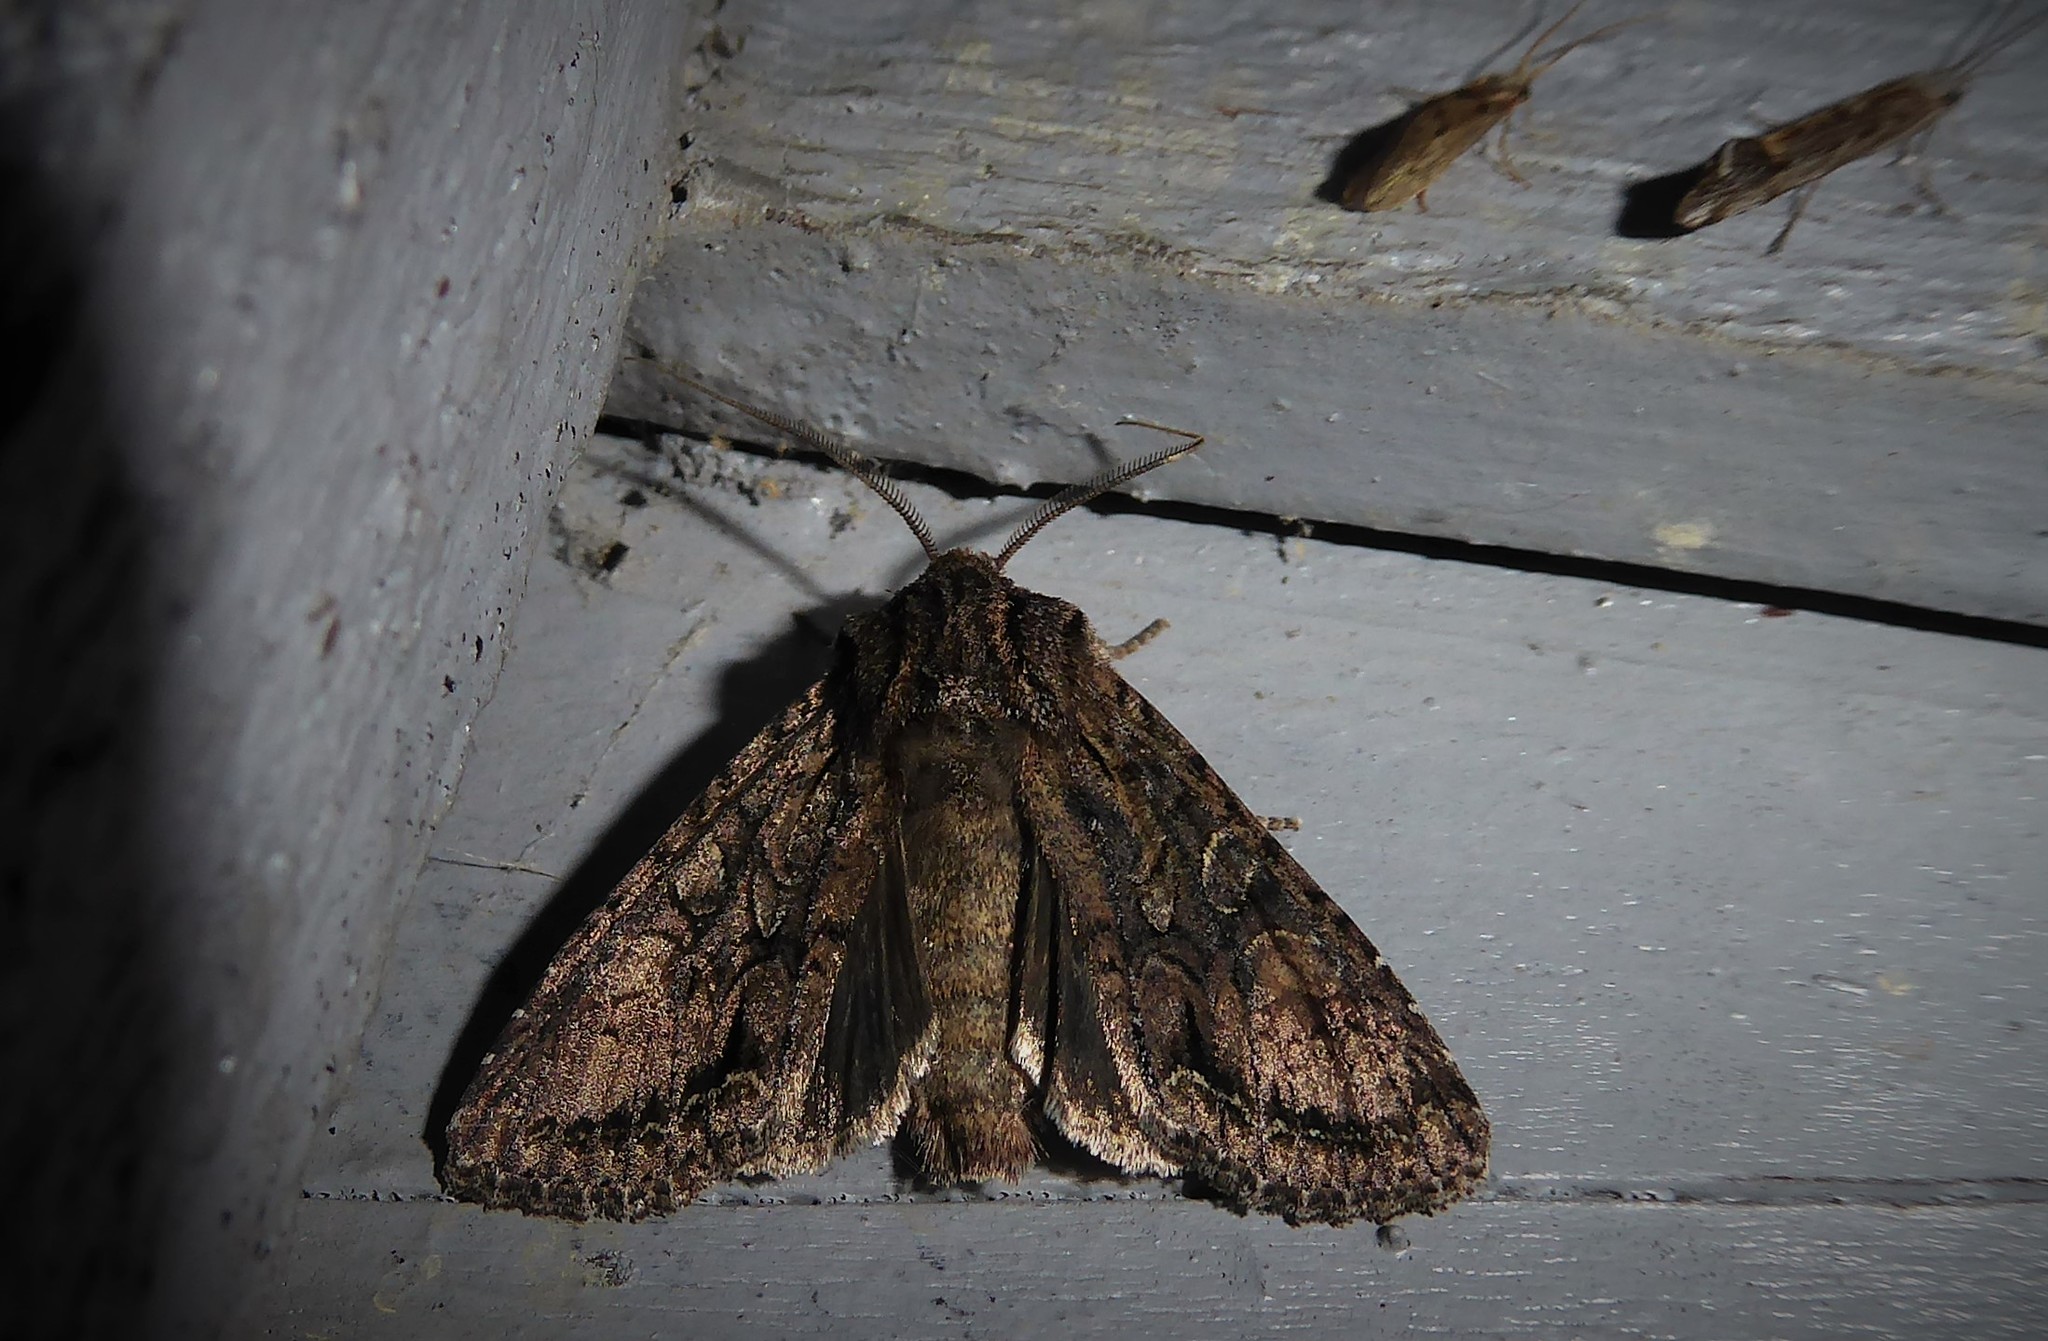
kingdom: Animalia
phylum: Arthropoda
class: Insecta
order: Lepidoptera
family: Noctuidae
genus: Ichneutica
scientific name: Ichneutica mutans
